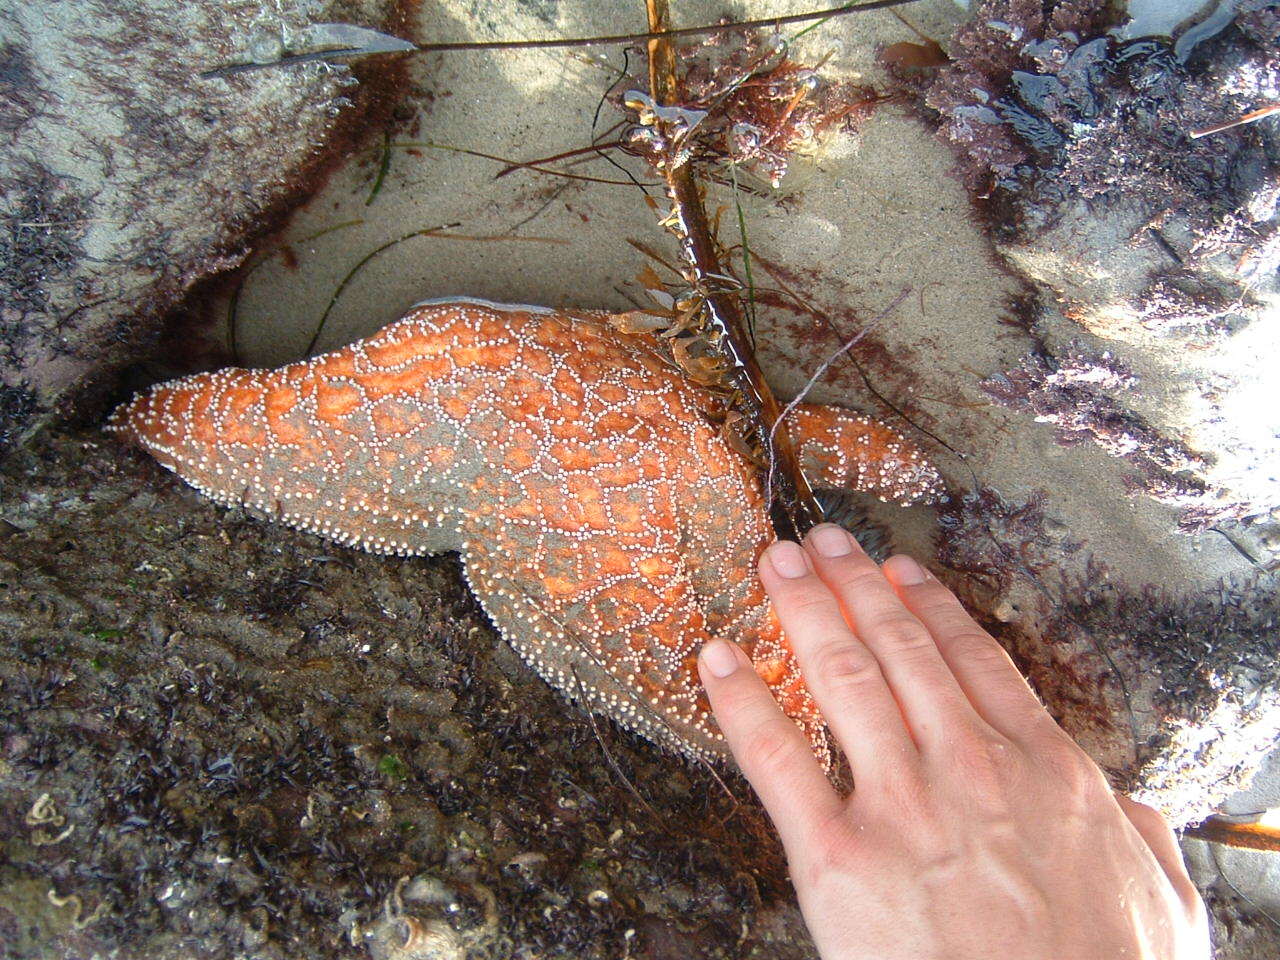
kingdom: Animalia
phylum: Echinodermata
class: Asteroidea
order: Forcipulatida
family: Asteriidae
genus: Pisaster
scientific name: Pisaster ochraceus
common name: Ochre stars
